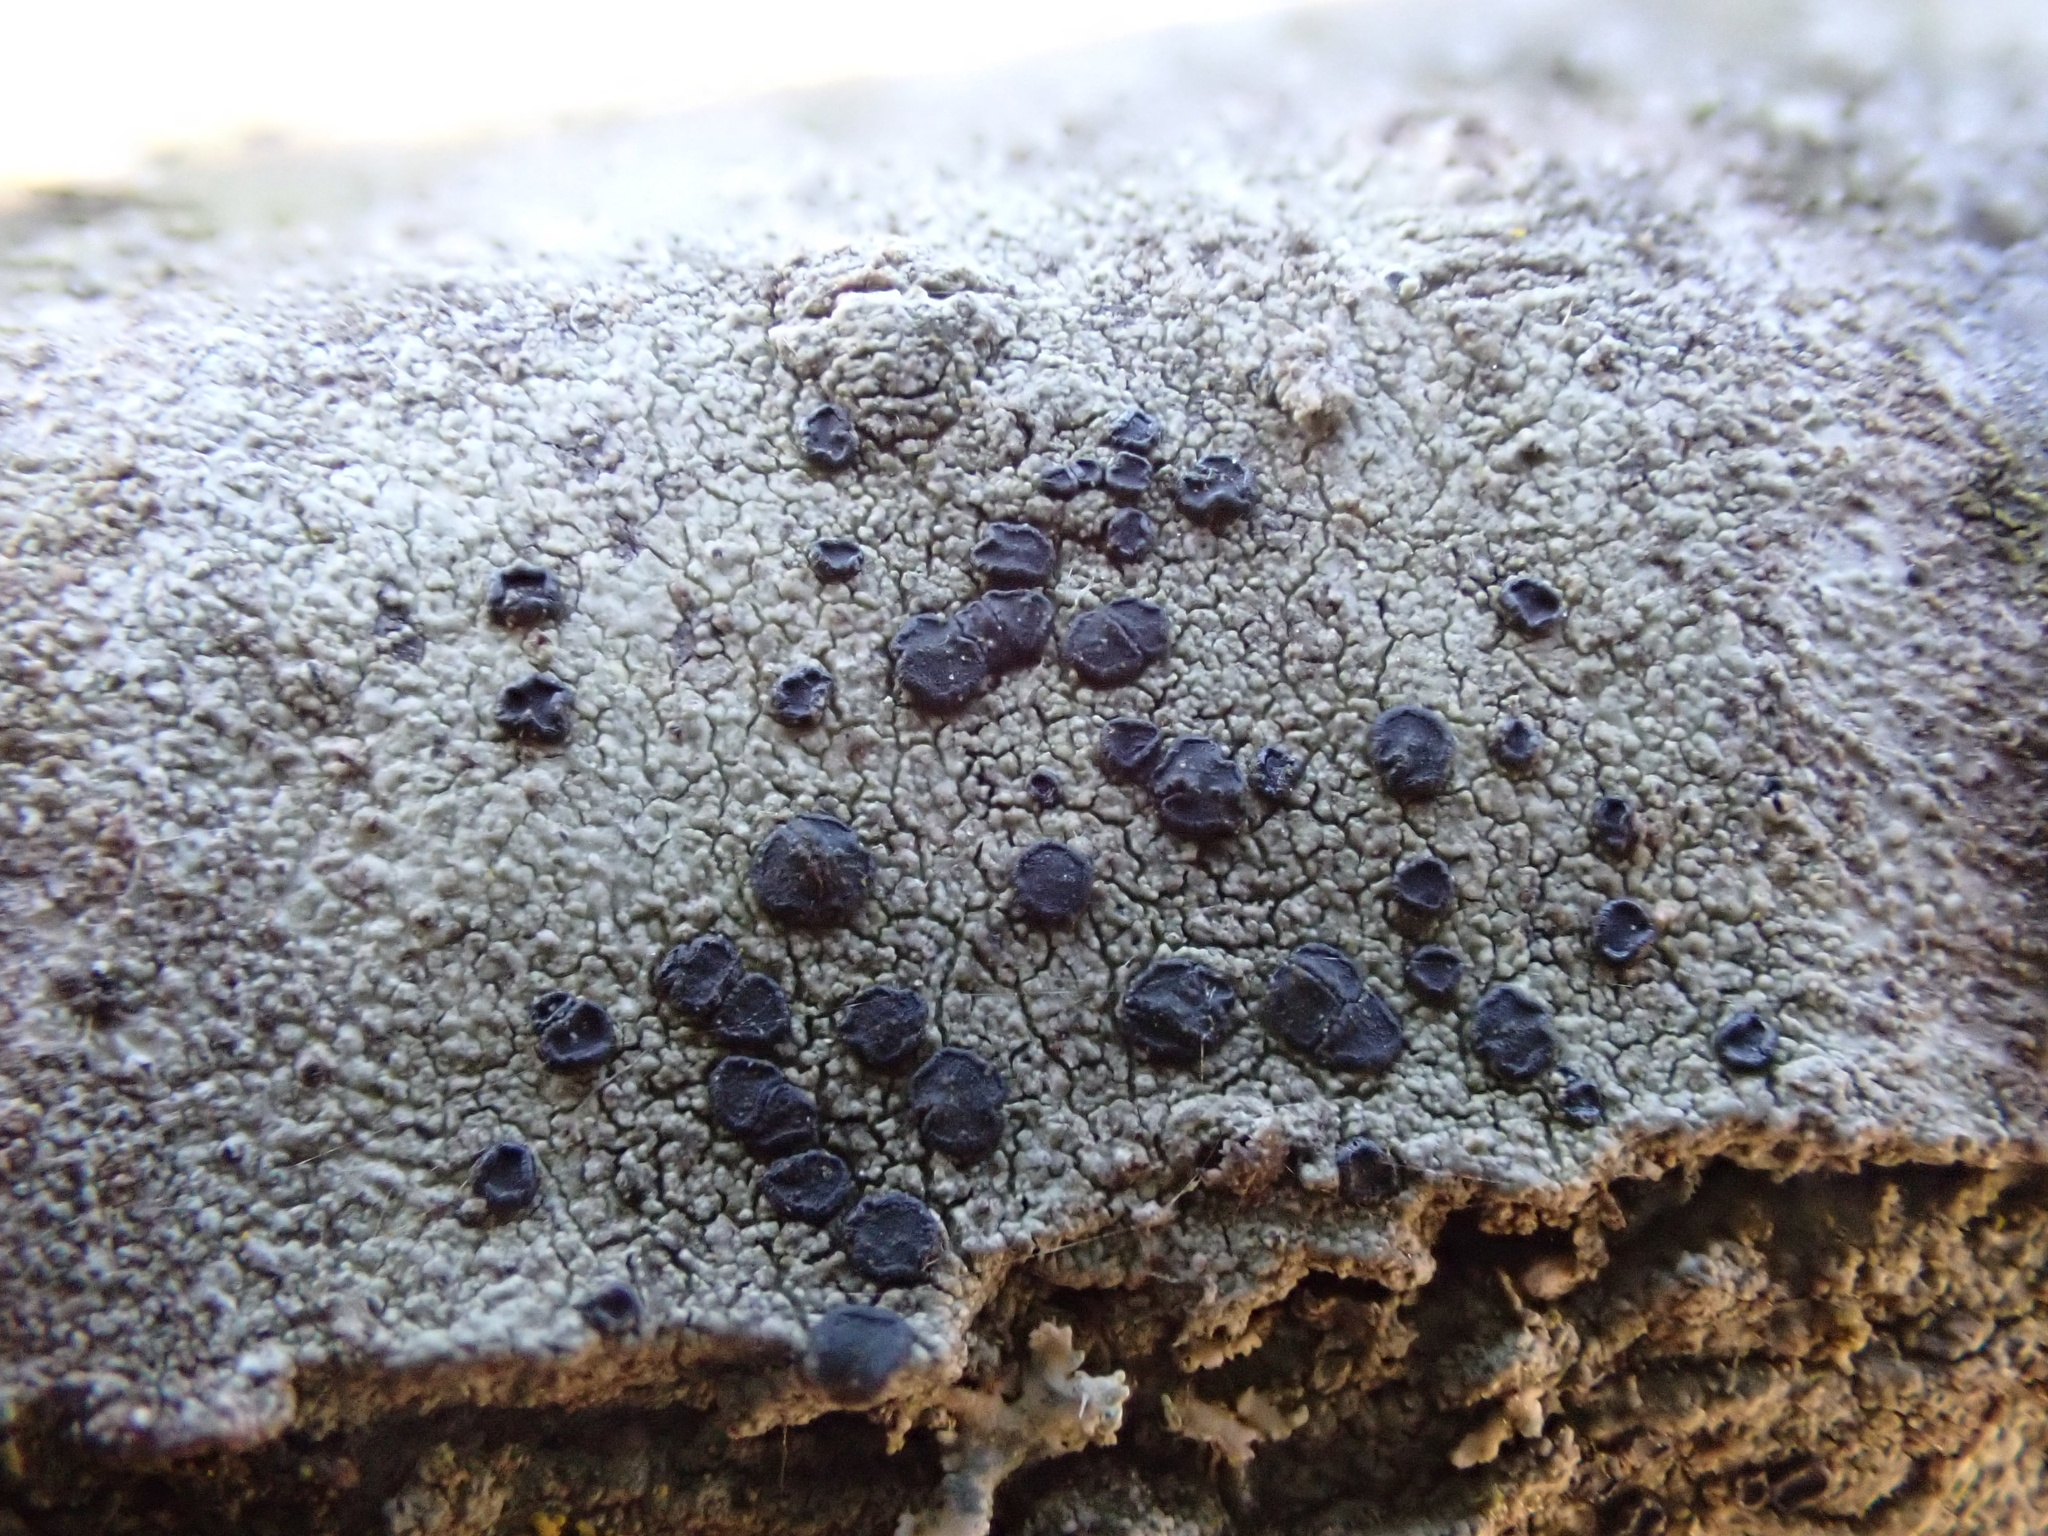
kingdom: Fungi
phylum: Ascomycota
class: Lecanoromycetes
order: Lecanorales
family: Lecanoraceae
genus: Lecidella
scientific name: Lecidella elaeochroma
